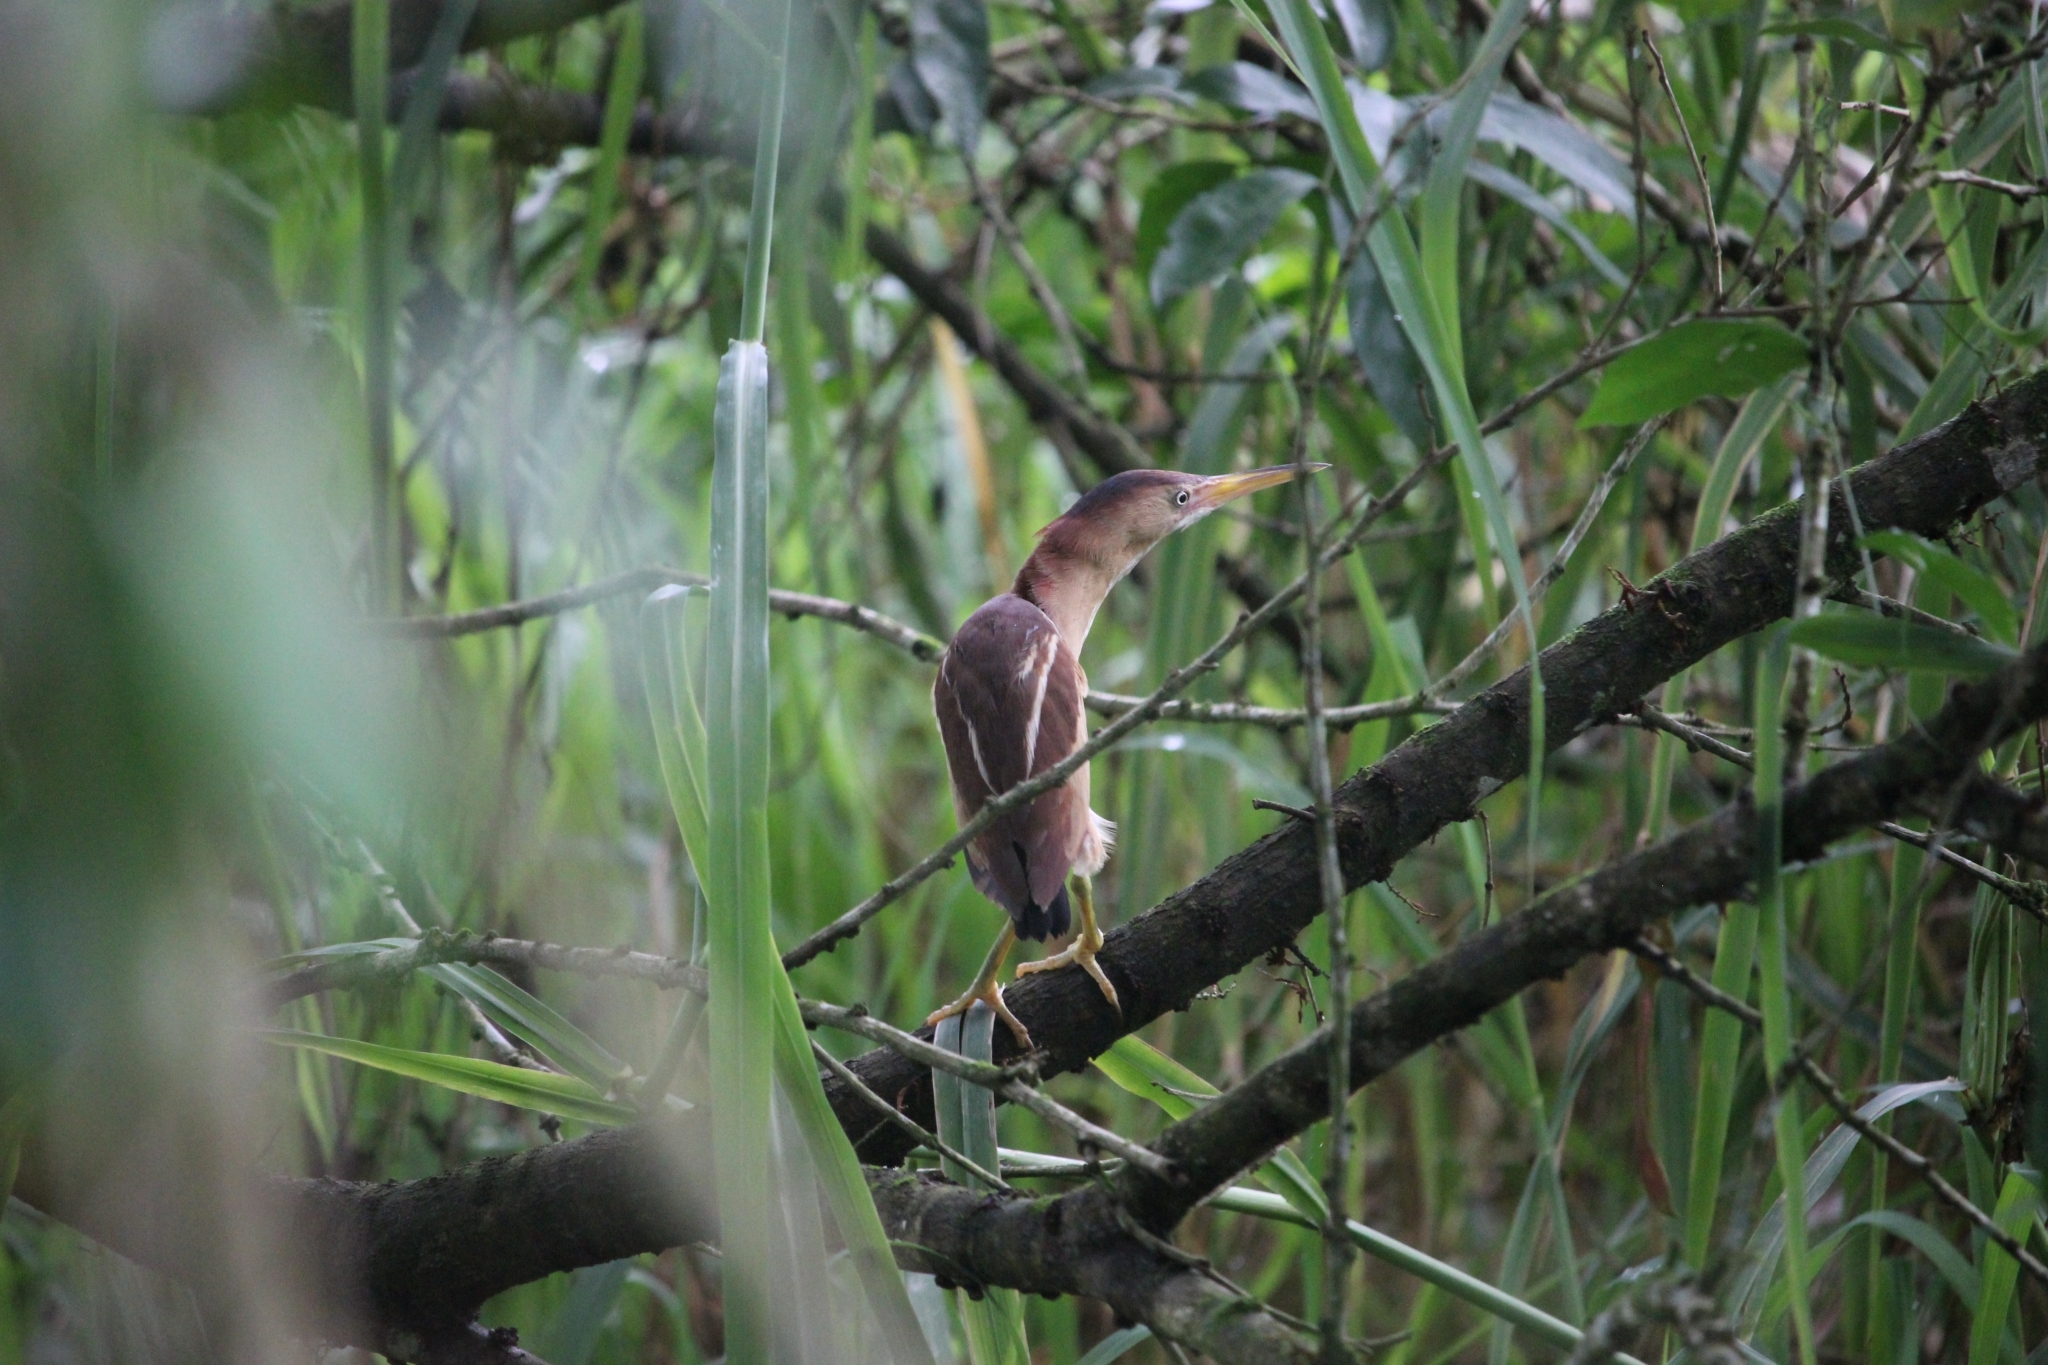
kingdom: Animalia
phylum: Chordata
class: Aves
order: Pelecaniformes
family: Ardeidae
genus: Ixobrychus
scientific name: Ixobrychus exilis
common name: Least bittern
